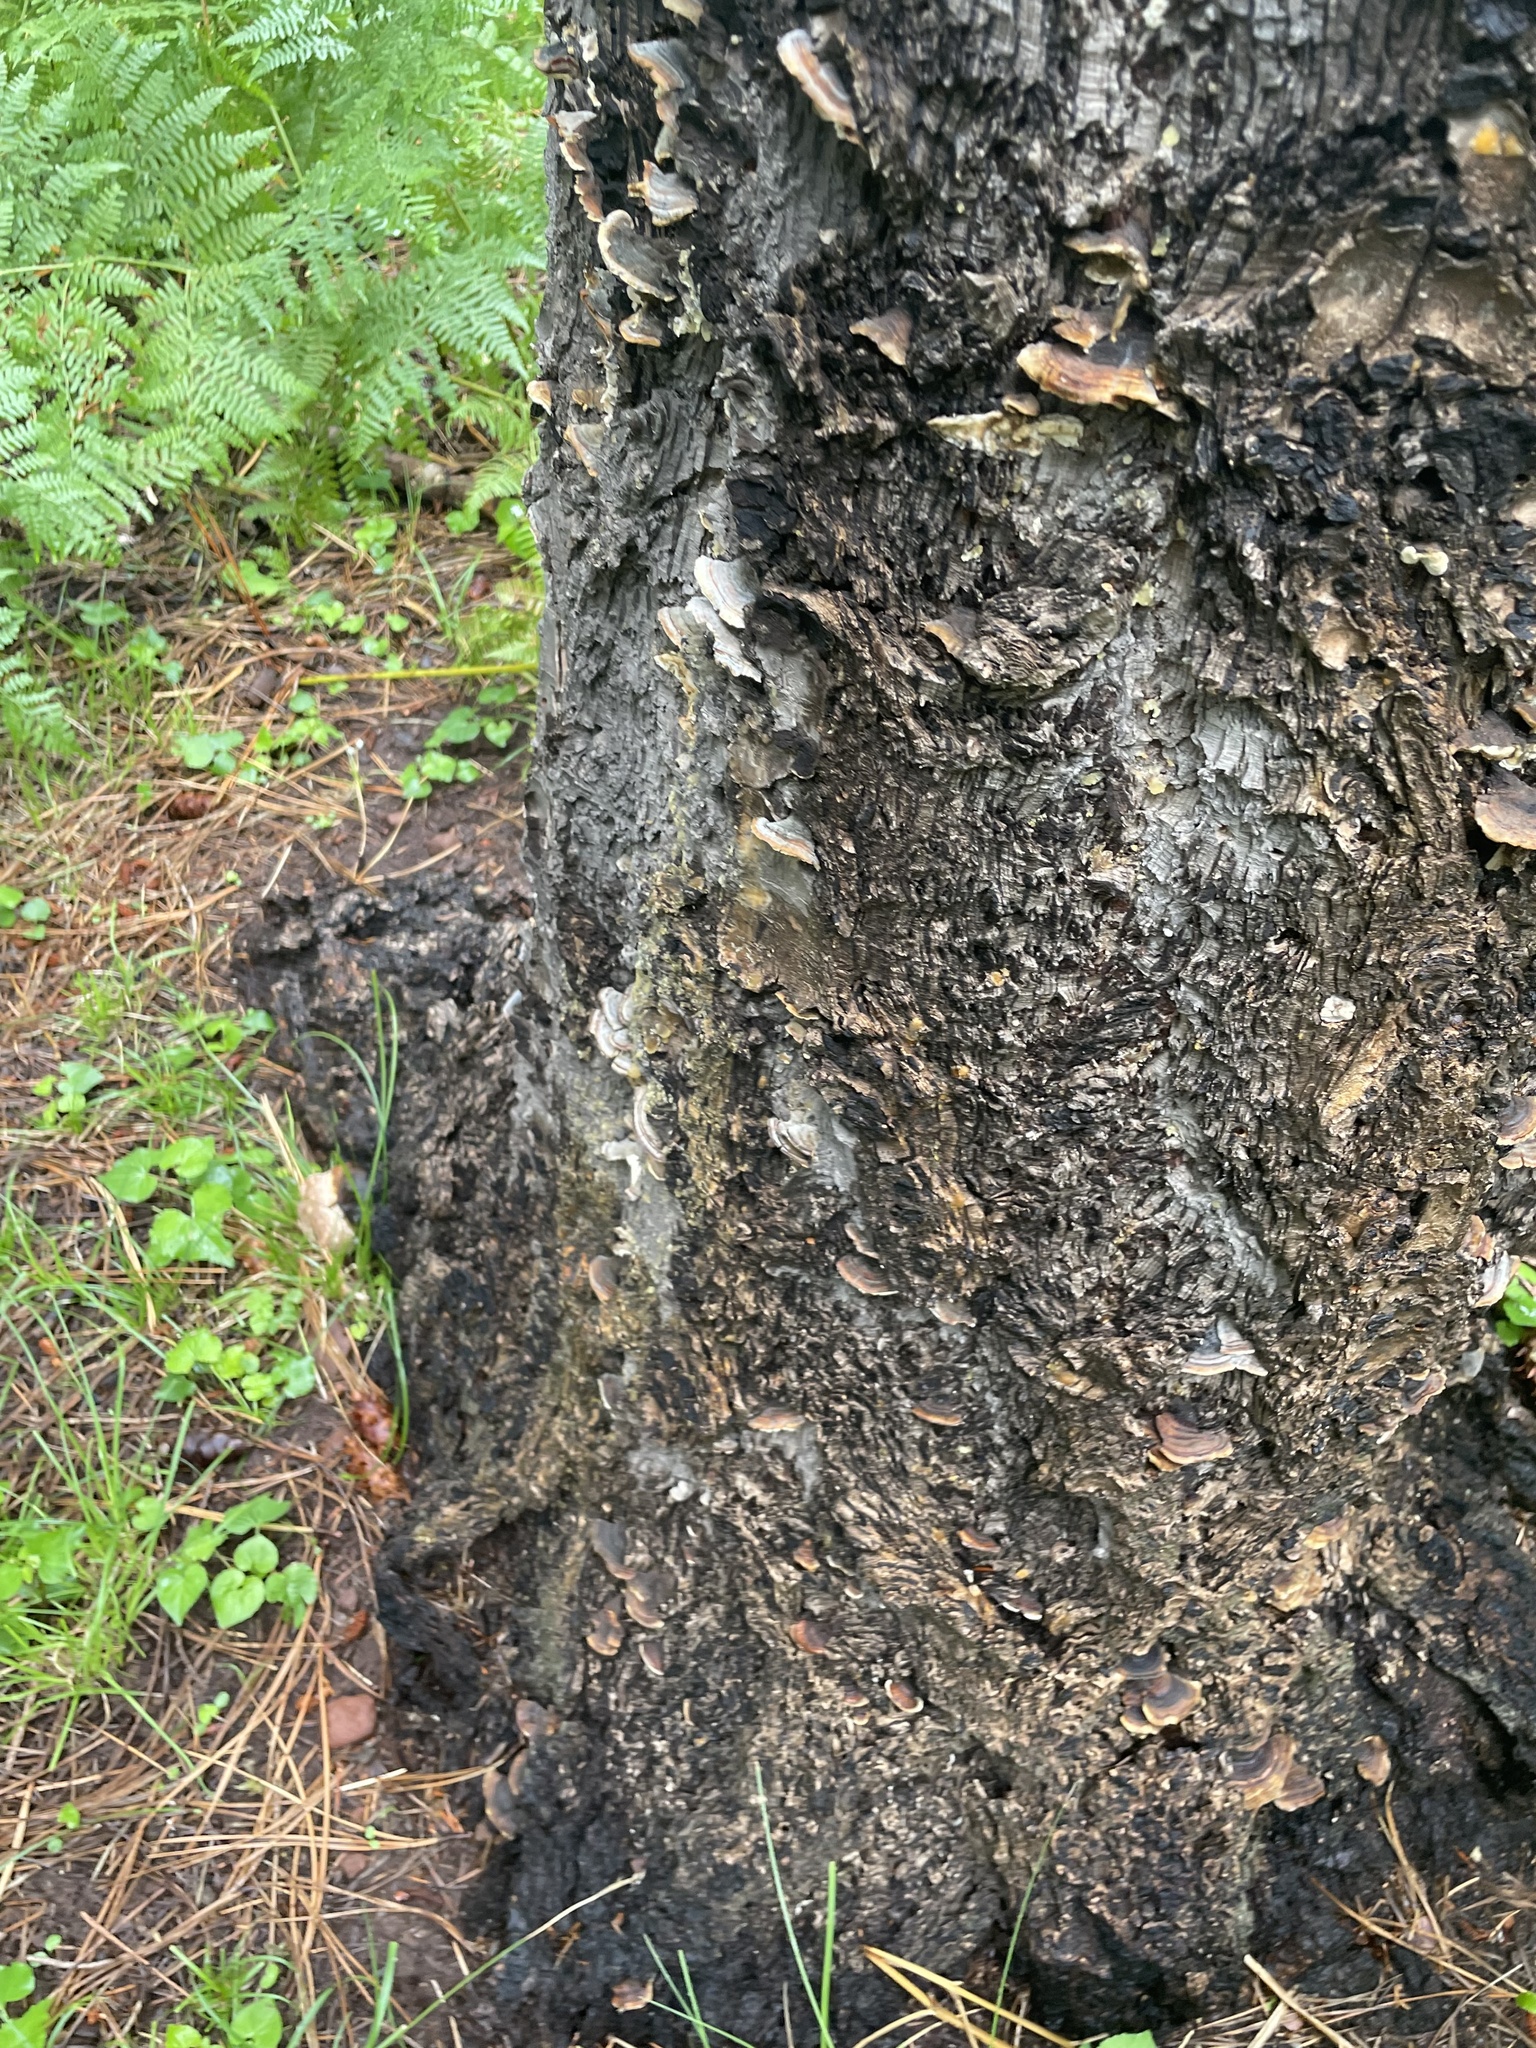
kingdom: Fungi
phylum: Basidiomycota
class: Agaricomycetes
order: Polyporales
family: Polyporaceae
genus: Trametes
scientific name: Trametes versicolor
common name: Turkeytail
